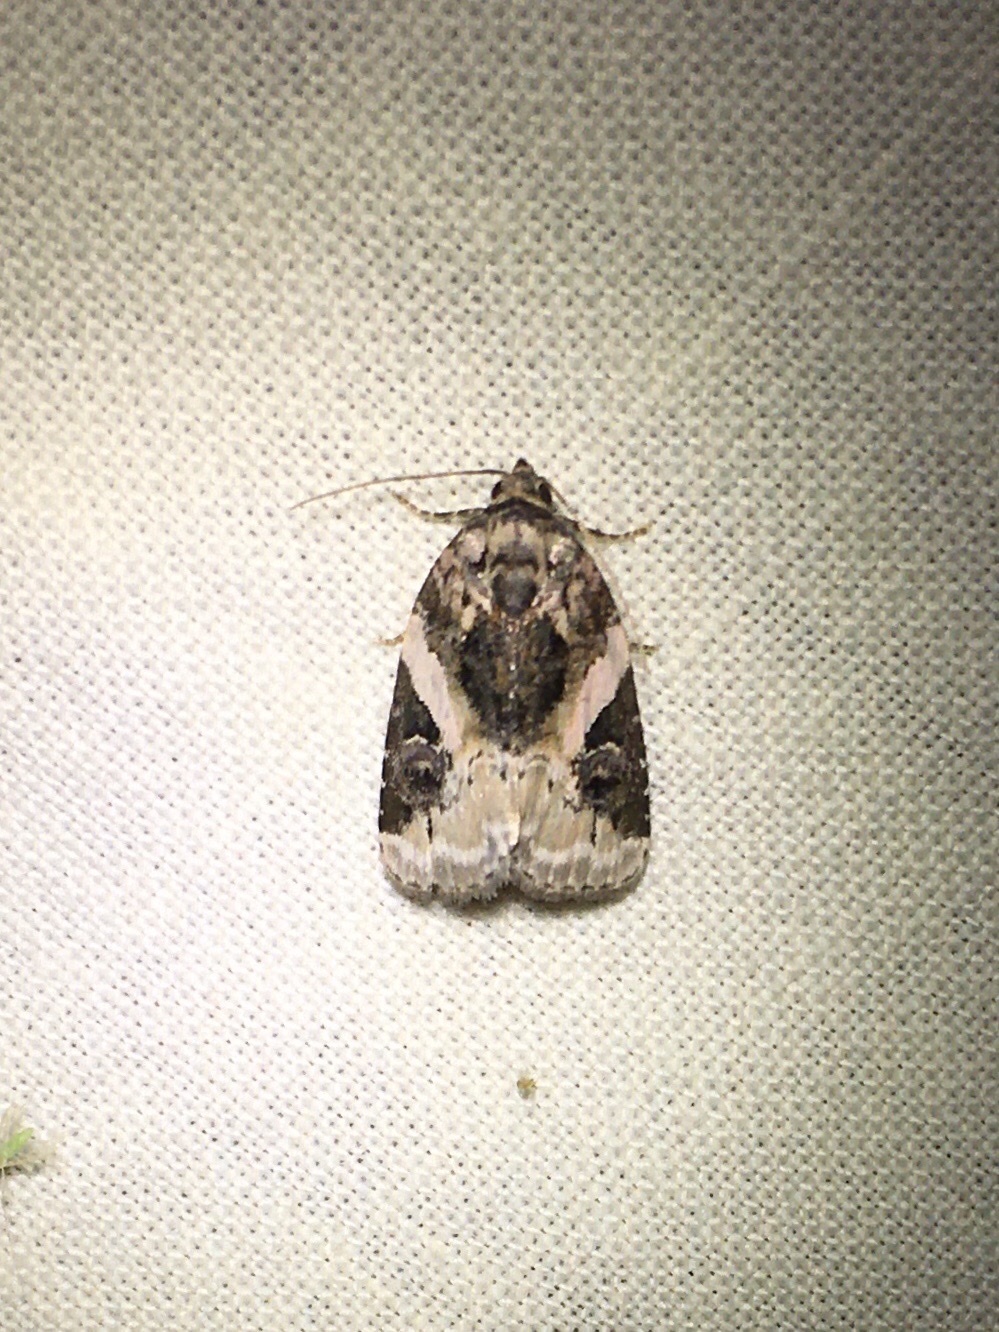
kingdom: Animalia
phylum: Arthropoda
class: Insecta
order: Lepidoptera
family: Noctuidae
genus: Pseudeustrotia
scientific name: Pseudeustrotia carneola
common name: Pink-barred lithacodia moth
